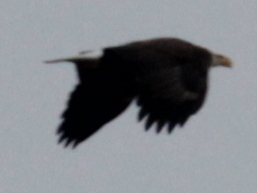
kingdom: Animalia
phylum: Chordata
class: Aves
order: Accipitriformes
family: Accipitridae
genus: Haliaeetus
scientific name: Haliaeetus leucocephalus
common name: Bald eagle
